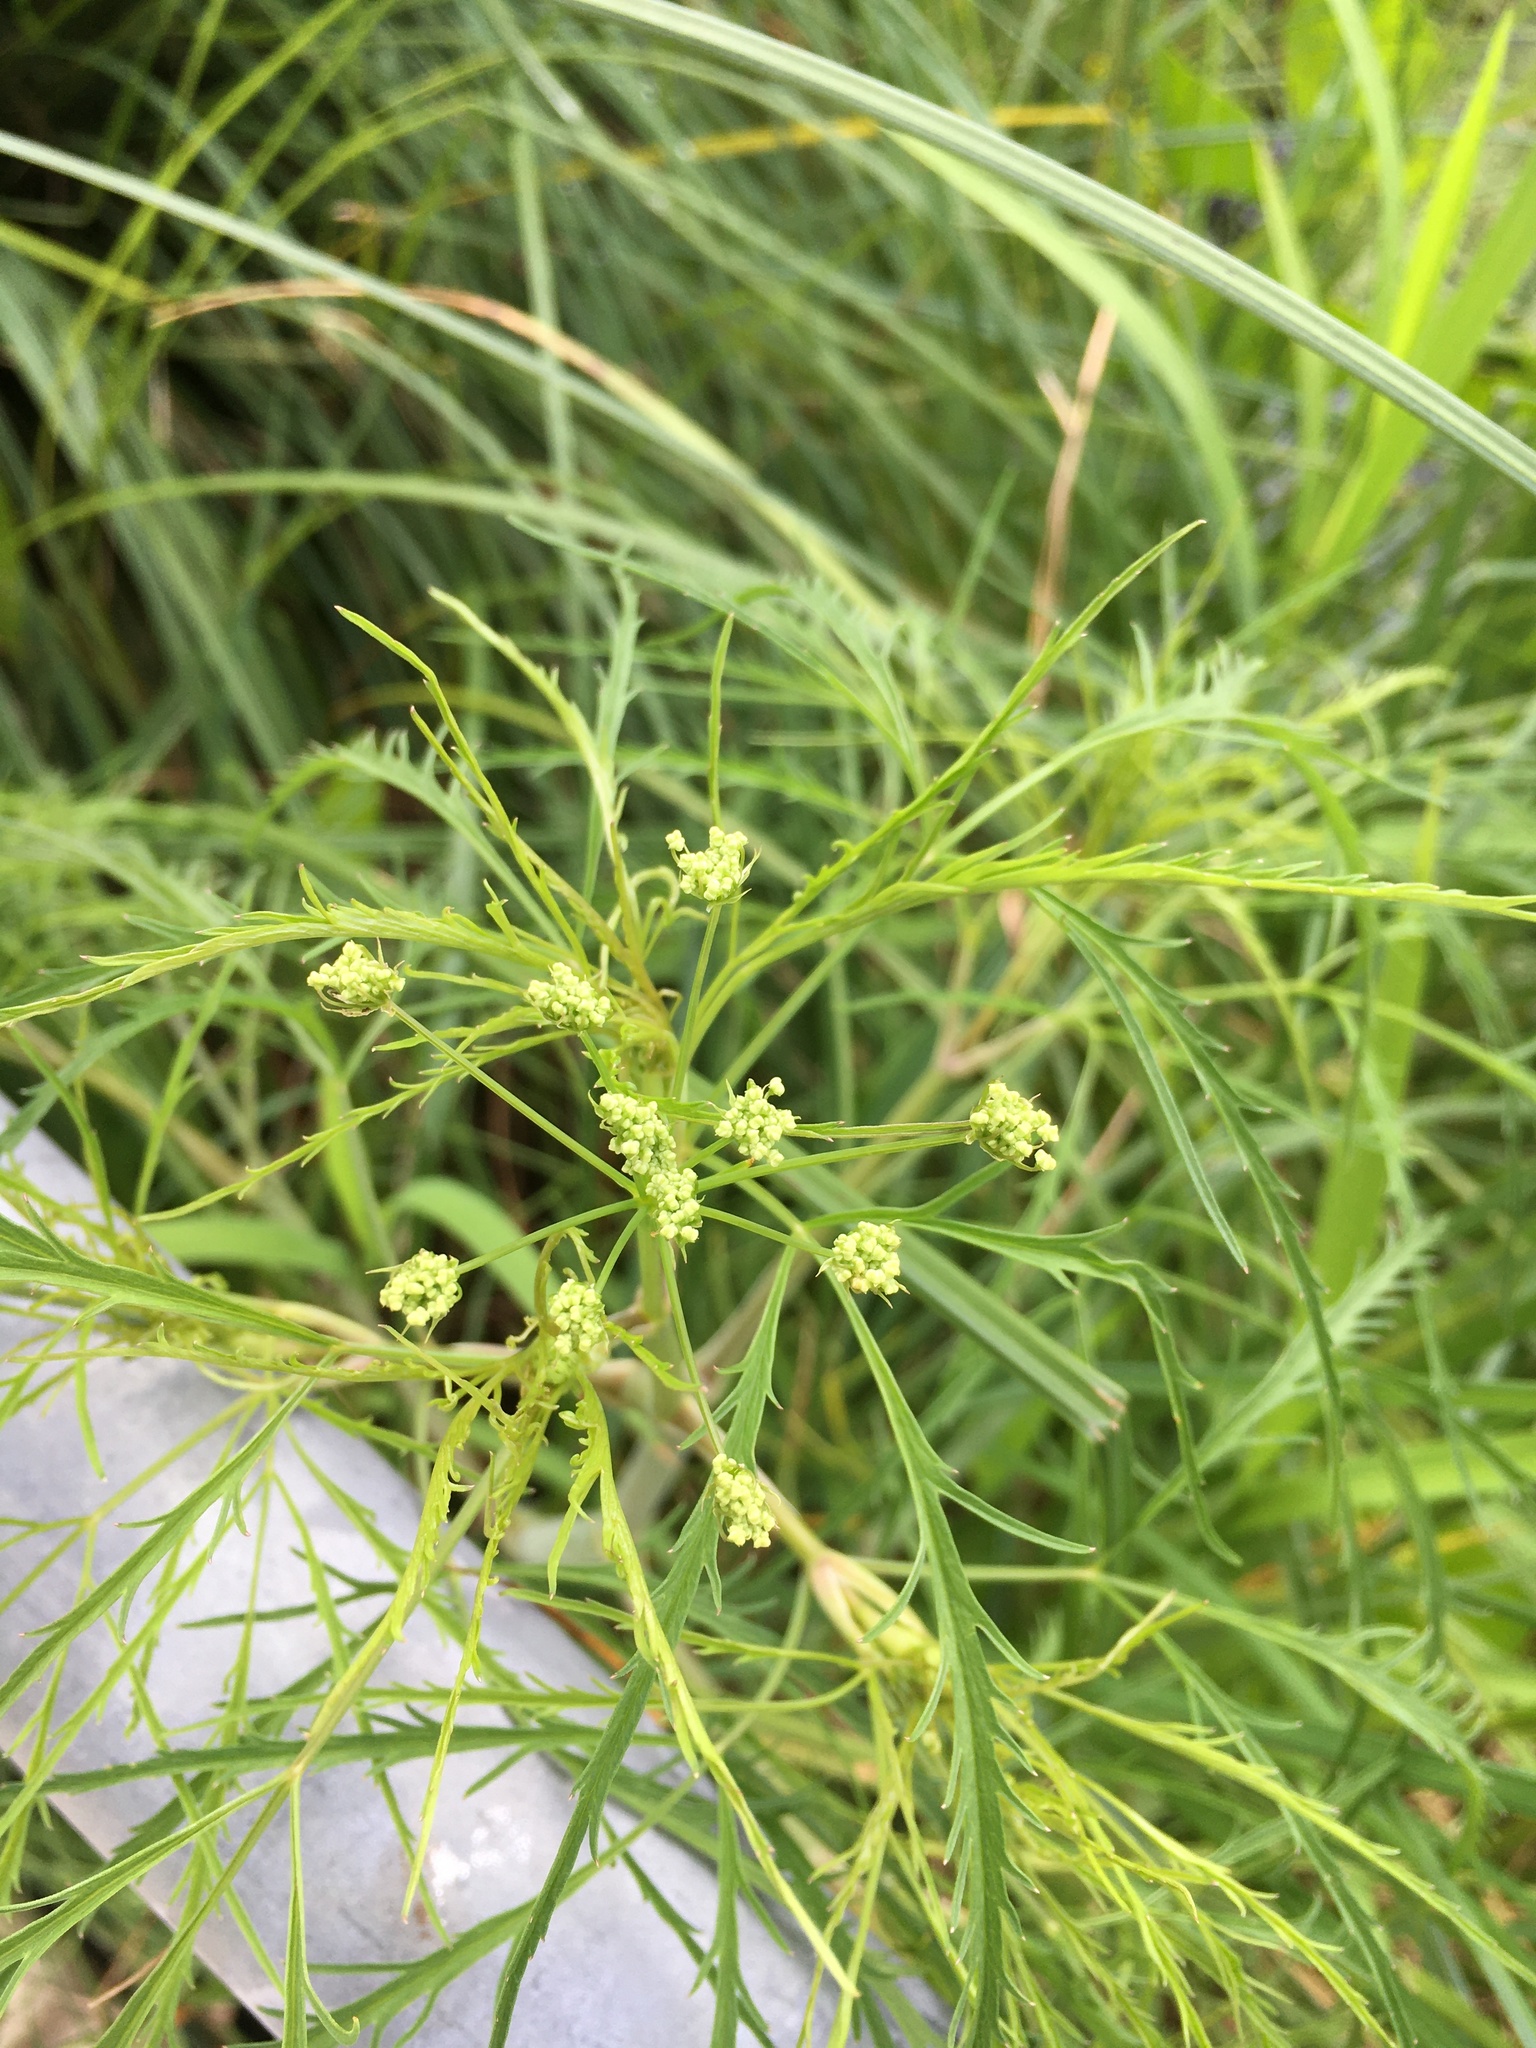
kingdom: Plantae
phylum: Tracheophyta
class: Magnoliopsida
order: Apiales
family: Apiaceae
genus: Cicuta
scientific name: Cicuta bulbifera
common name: Bulb-bearing water-hemlock
